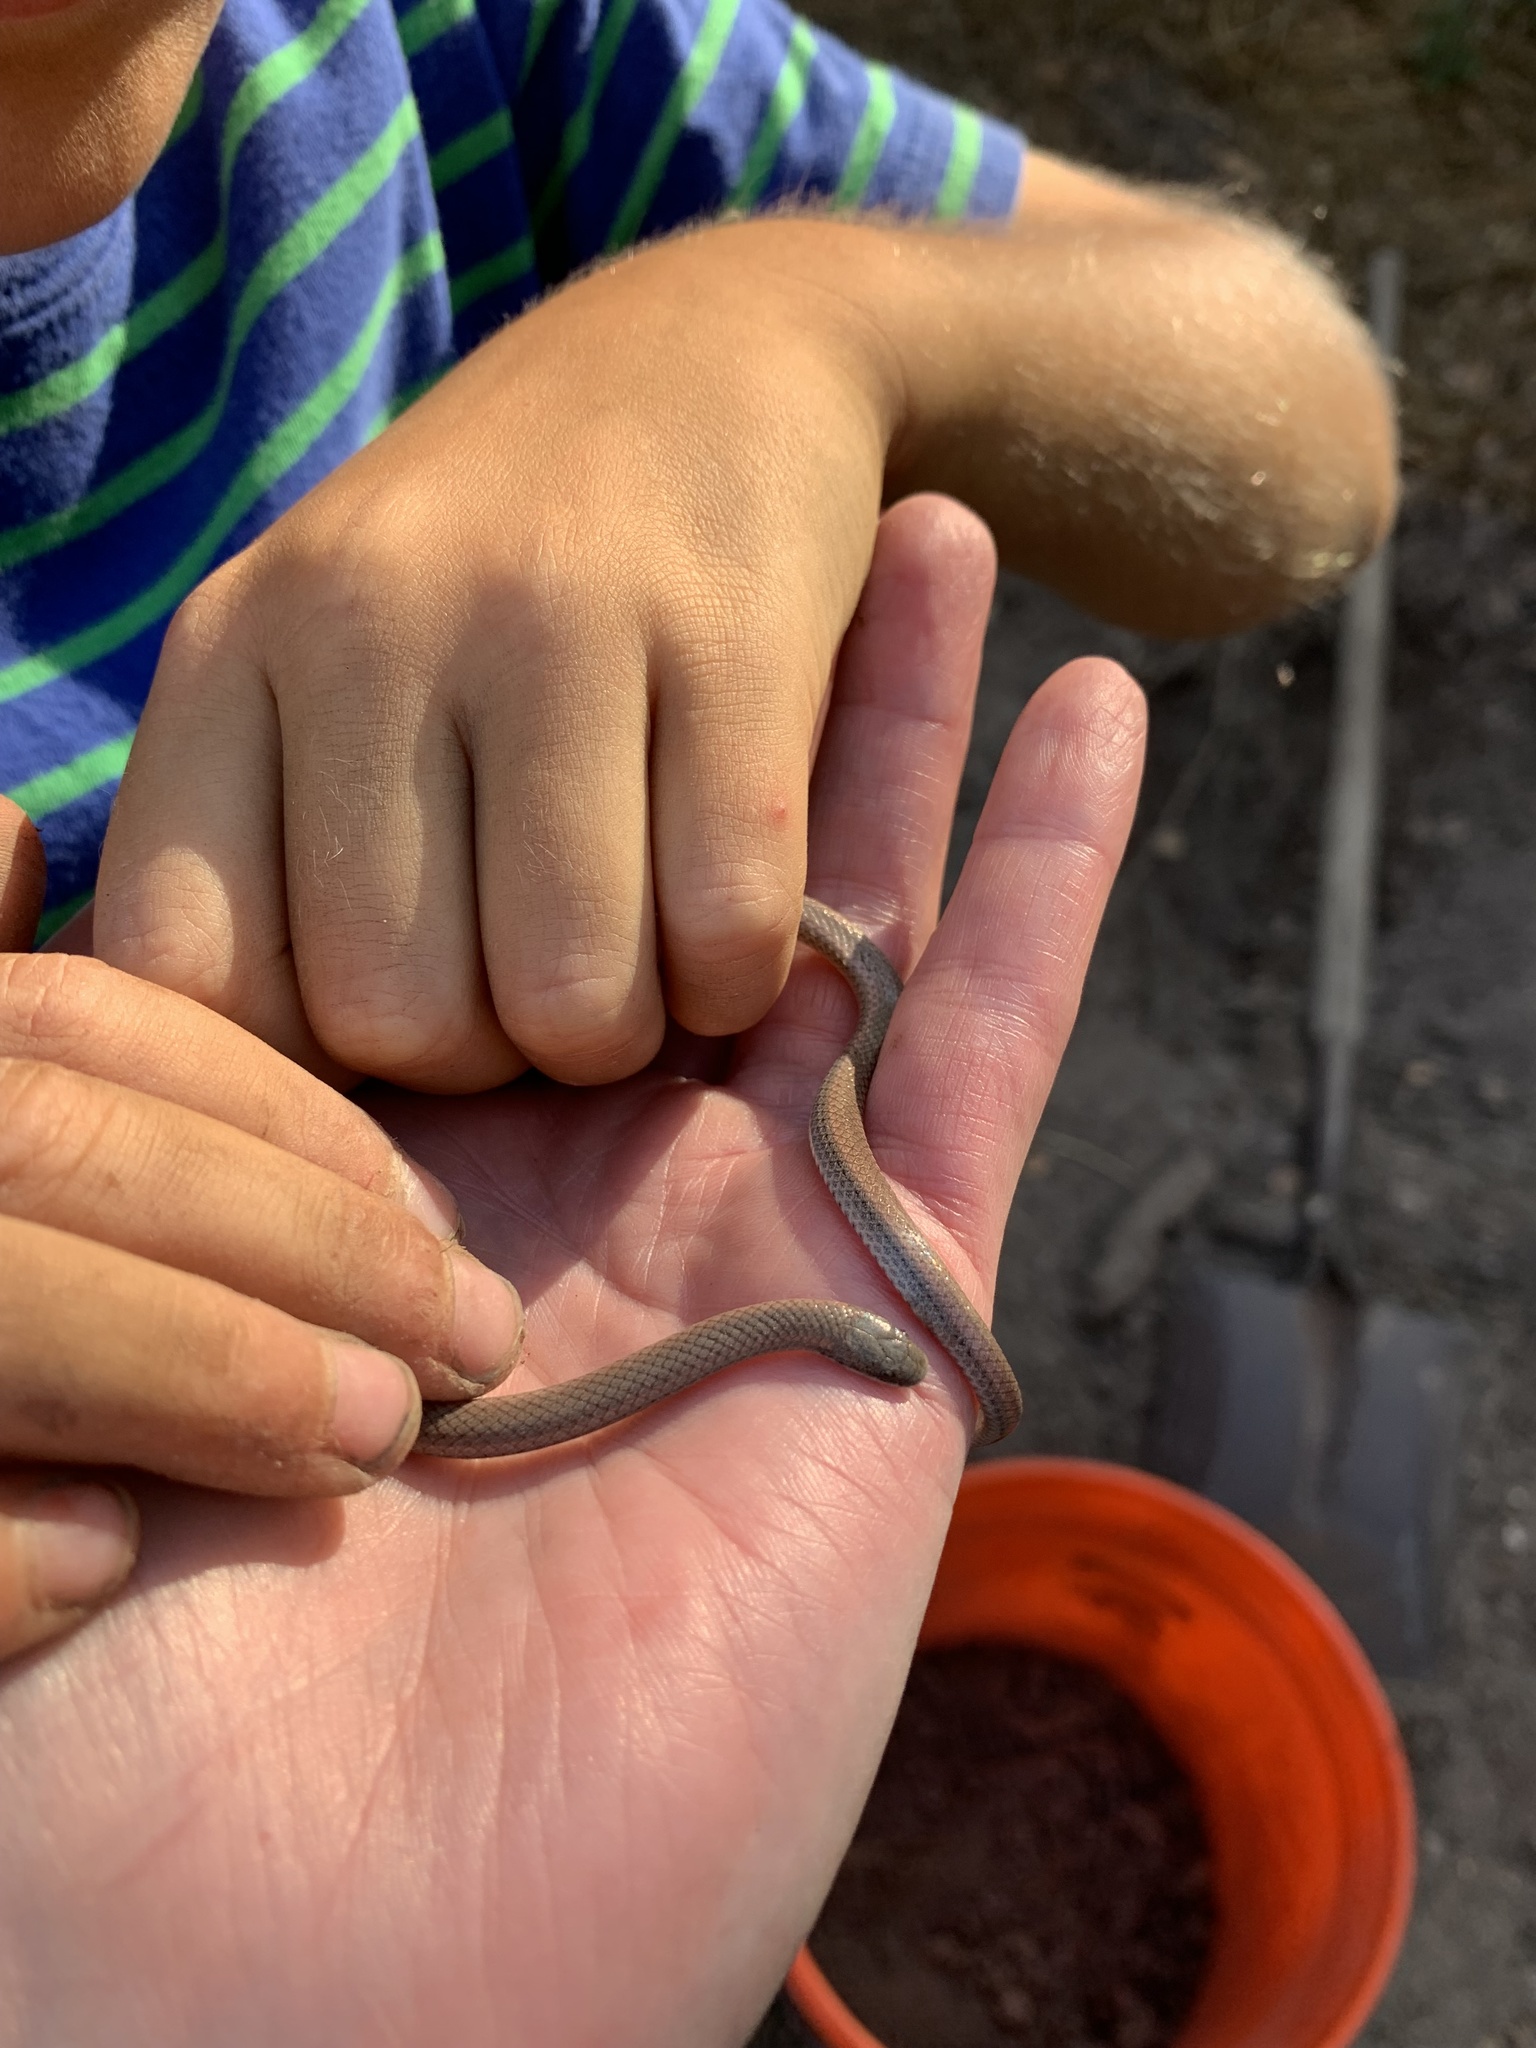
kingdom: Animalia
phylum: Chordata
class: Squamata
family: Colubridae
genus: Contia
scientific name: Contia tenuis
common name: Sharptail snake
